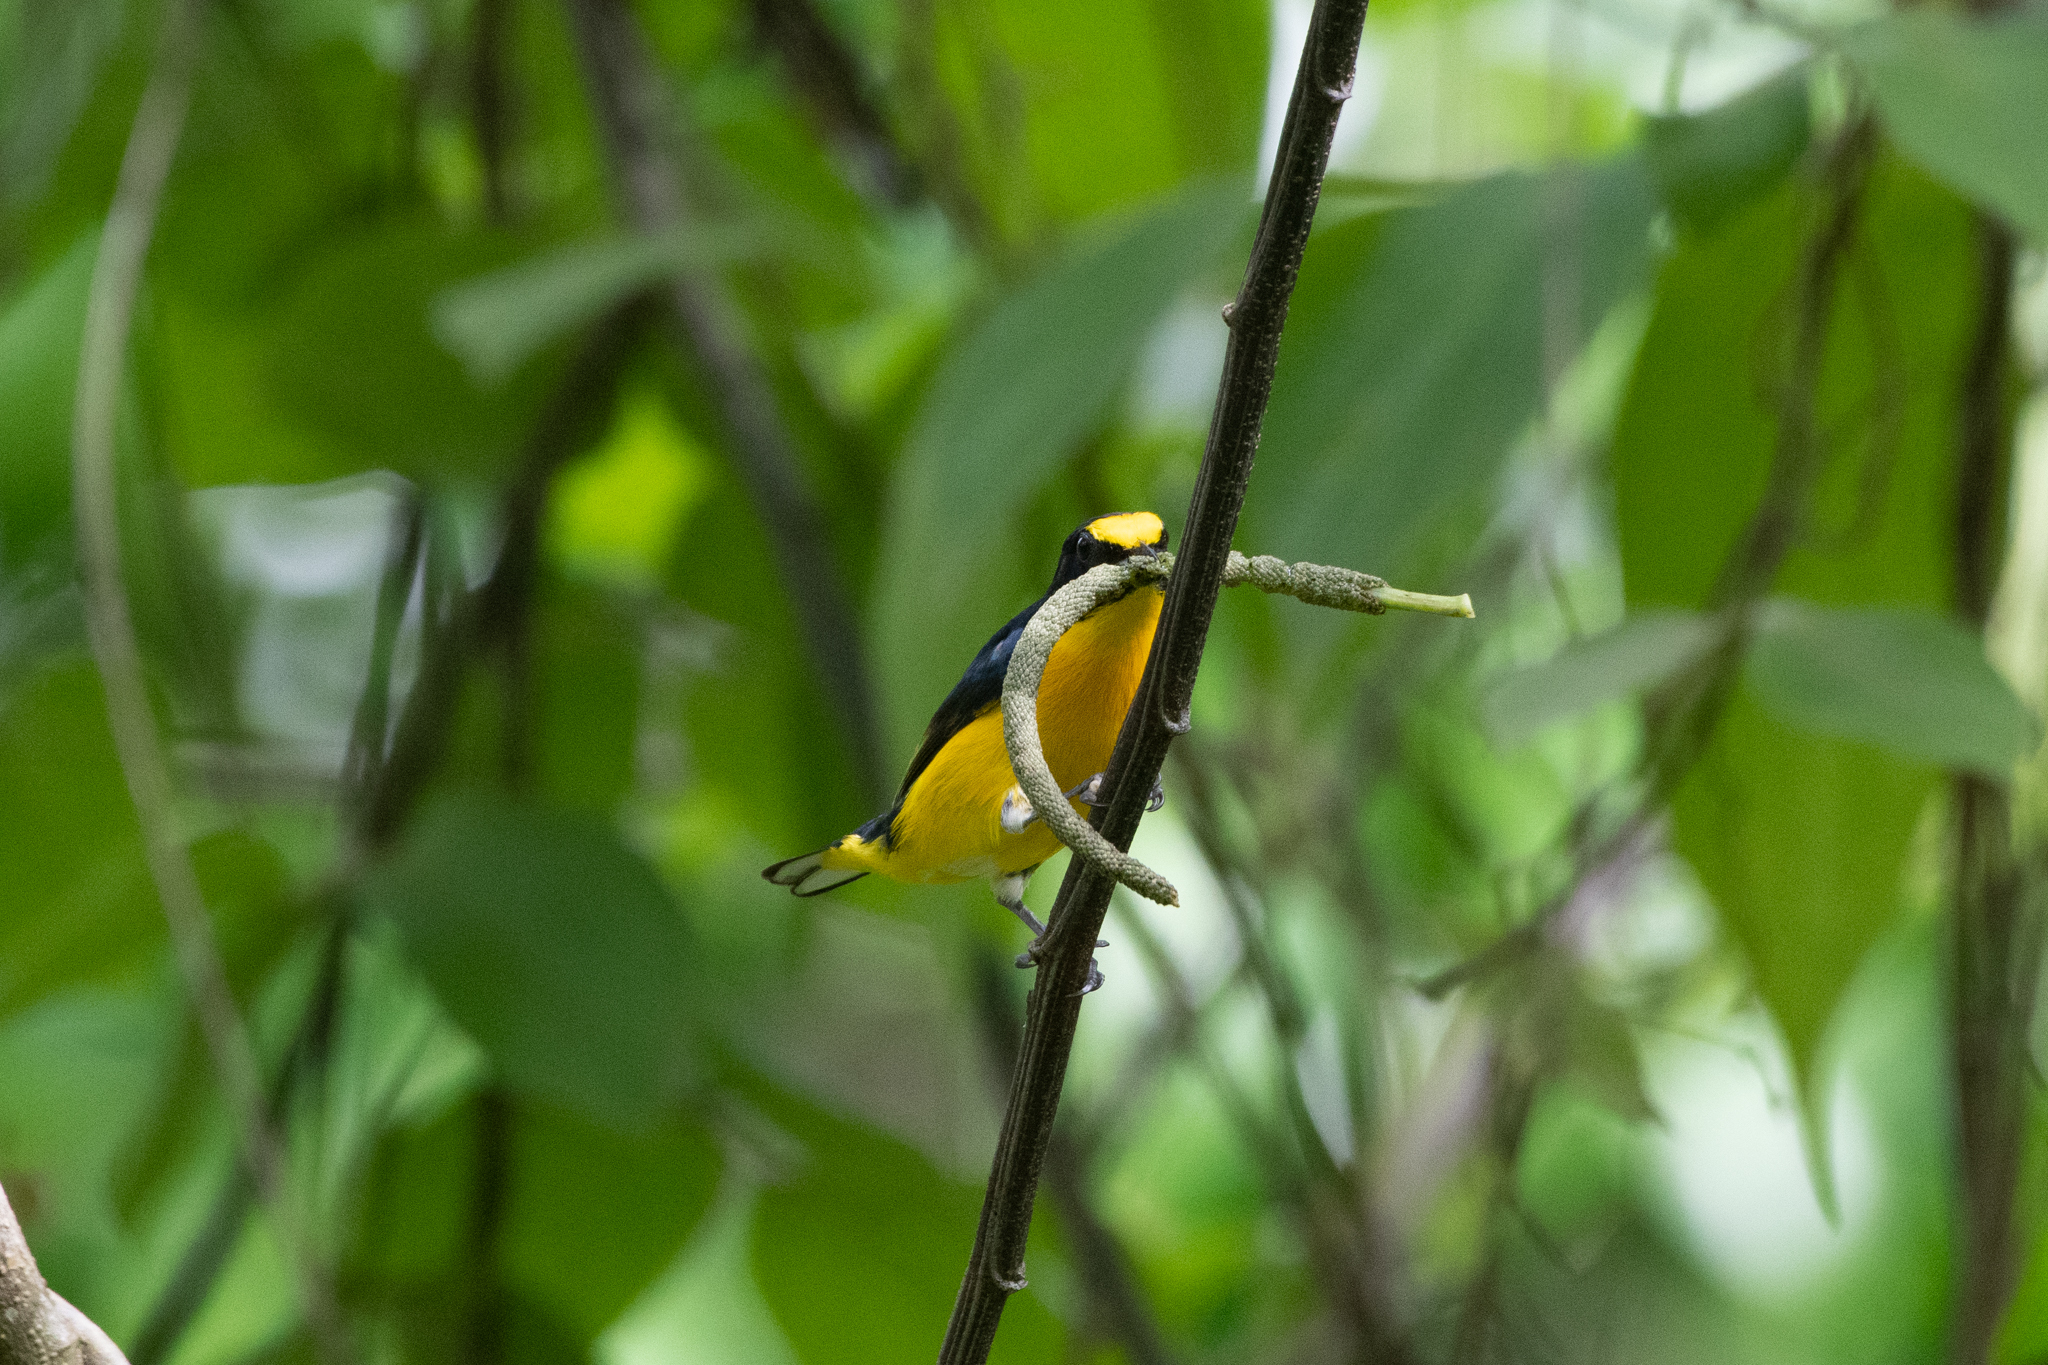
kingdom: Animalia
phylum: Chordata
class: Aves
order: Passeriformes
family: Fringillidae
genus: Euphonia
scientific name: Euphonia hirundinacea
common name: Yellow-throated euphonia
